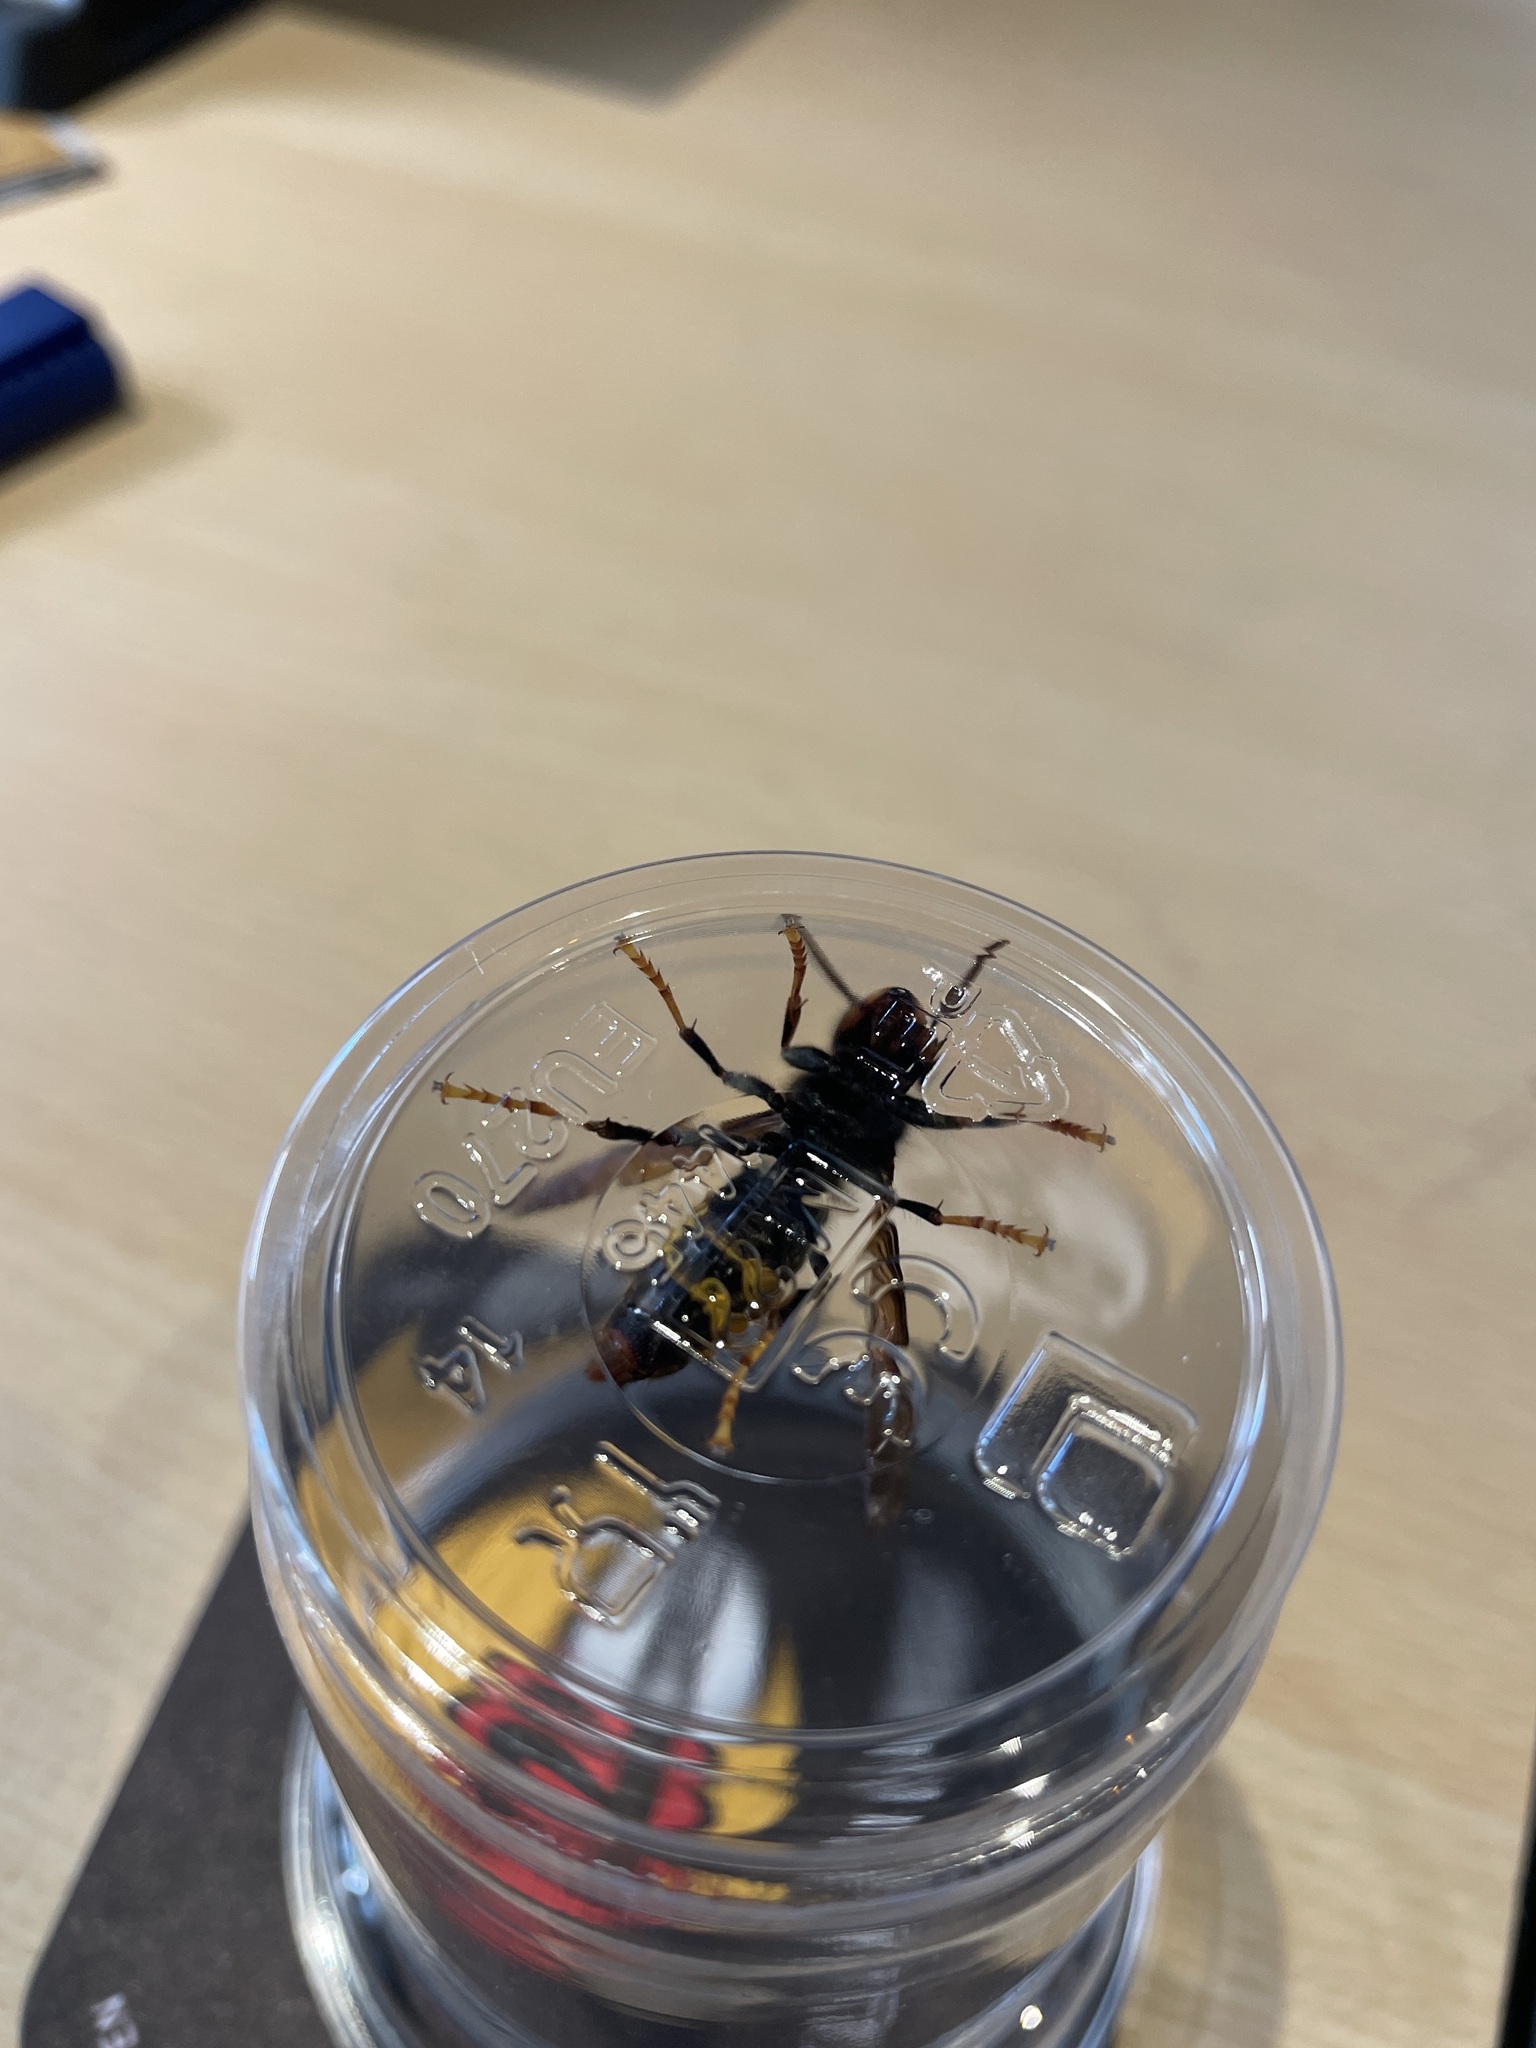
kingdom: Animalia
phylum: Arthropoda
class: Insecta
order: Hymenoptera
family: Vespidae
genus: Vespa
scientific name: Vespa velutina
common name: Asian hornet
